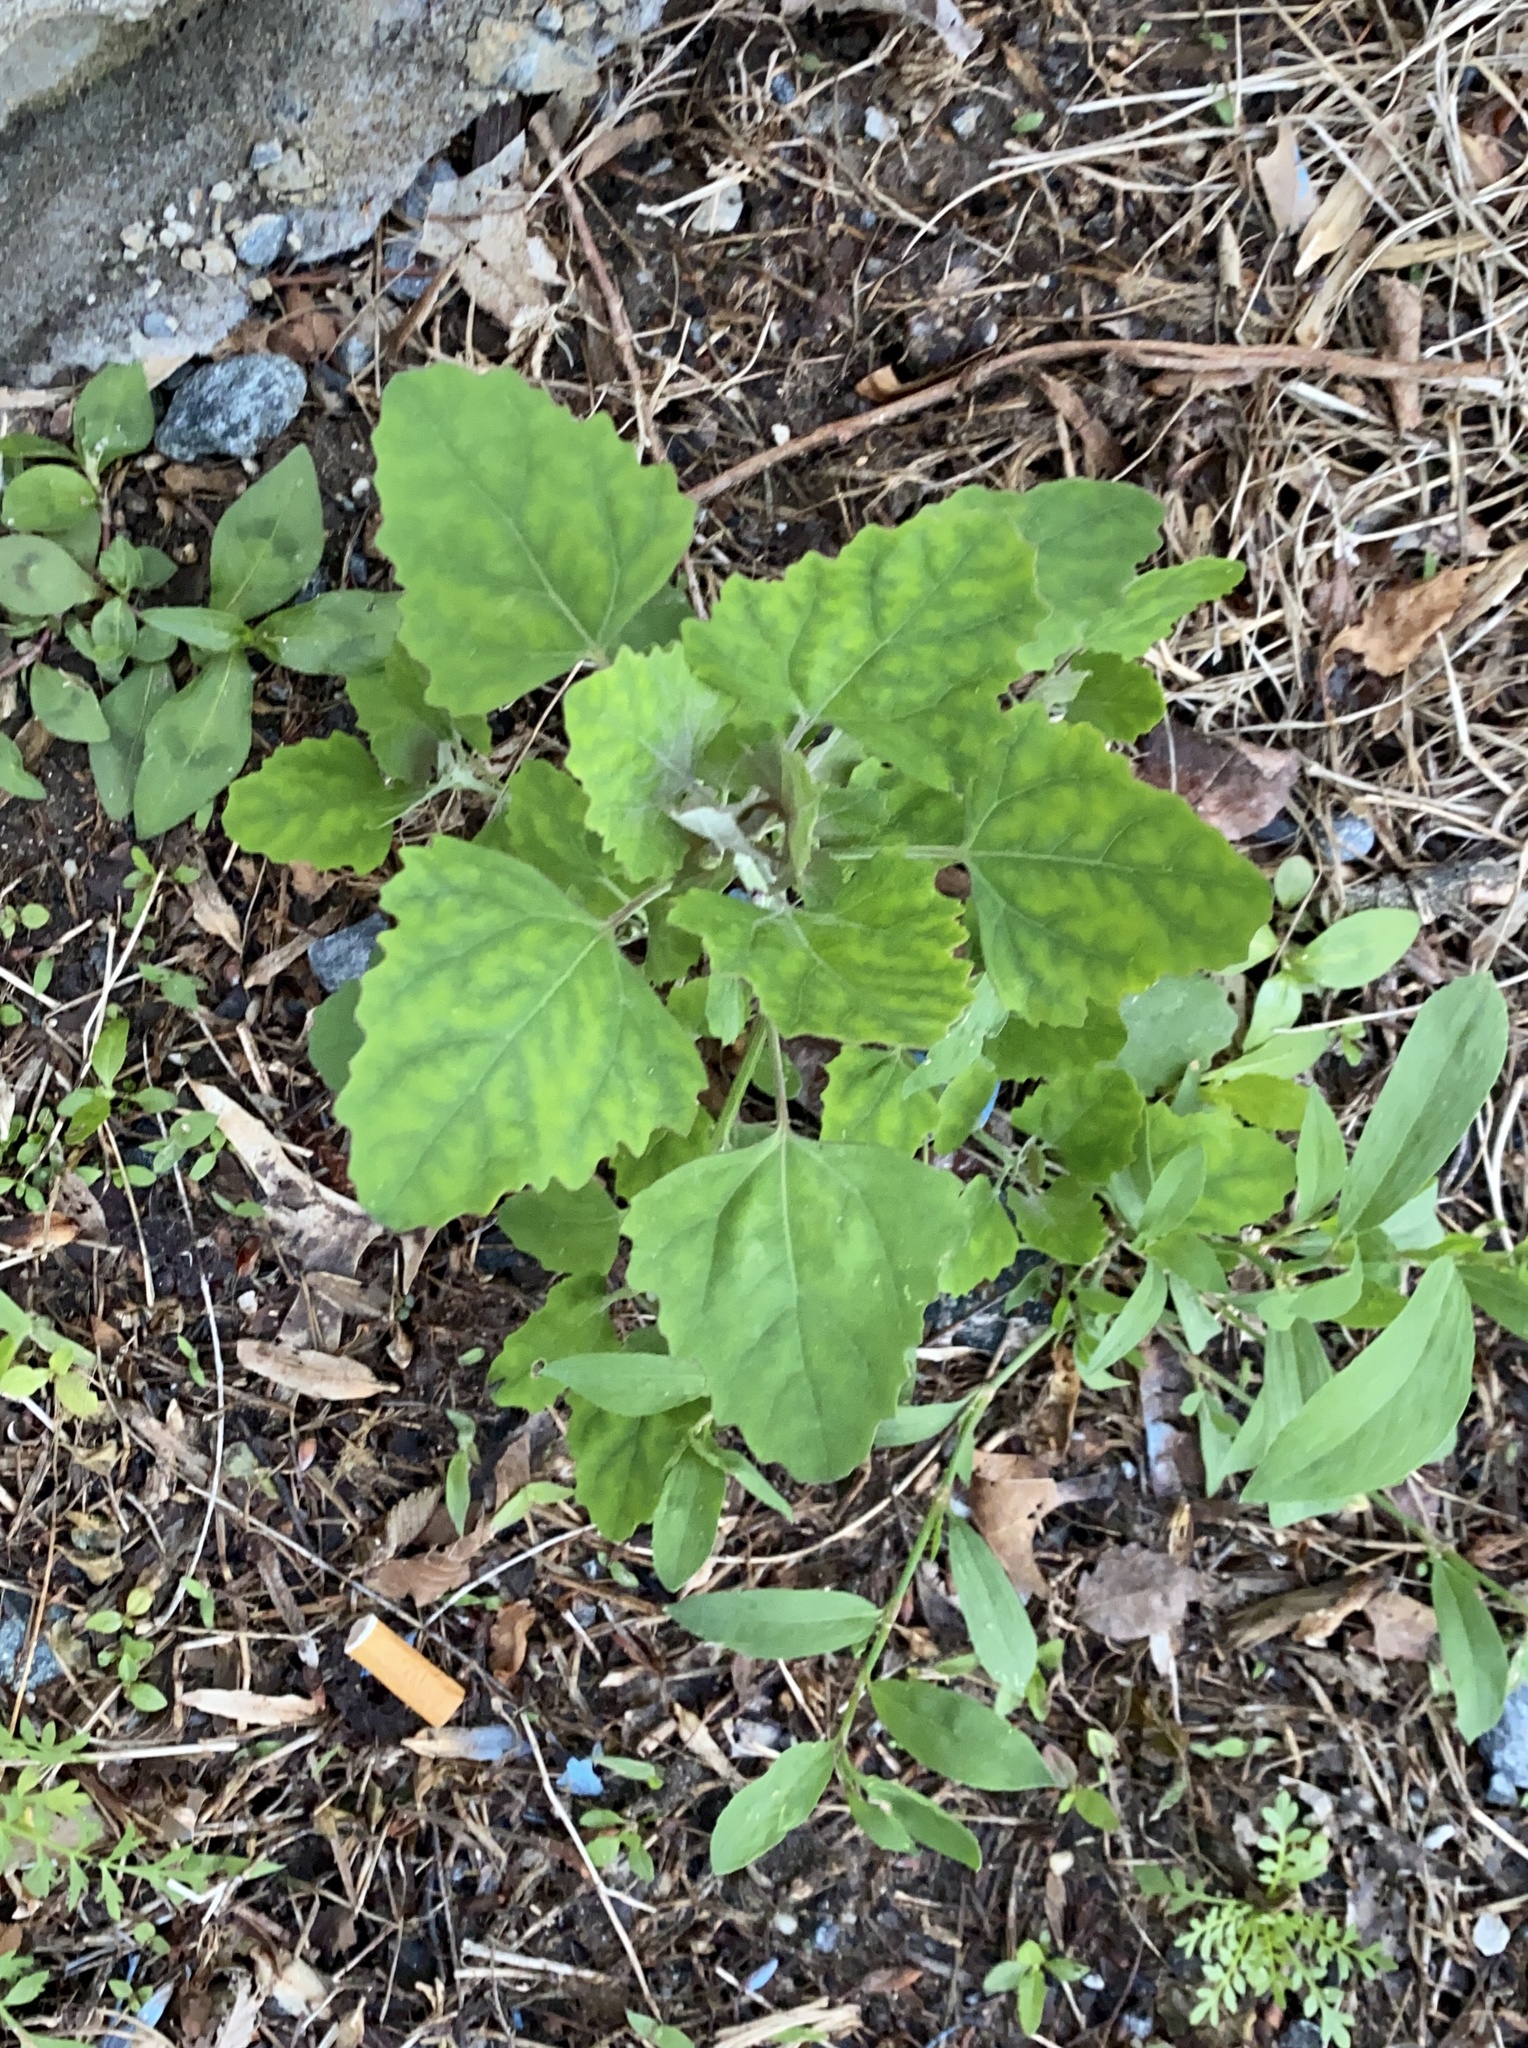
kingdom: Plantae
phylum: Tracheophyta
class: Magnoliopsida
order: Caryophyllales
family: Amaranthaceae
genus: Chenopodium
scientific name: Chenopodium album
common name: Fat-hen
